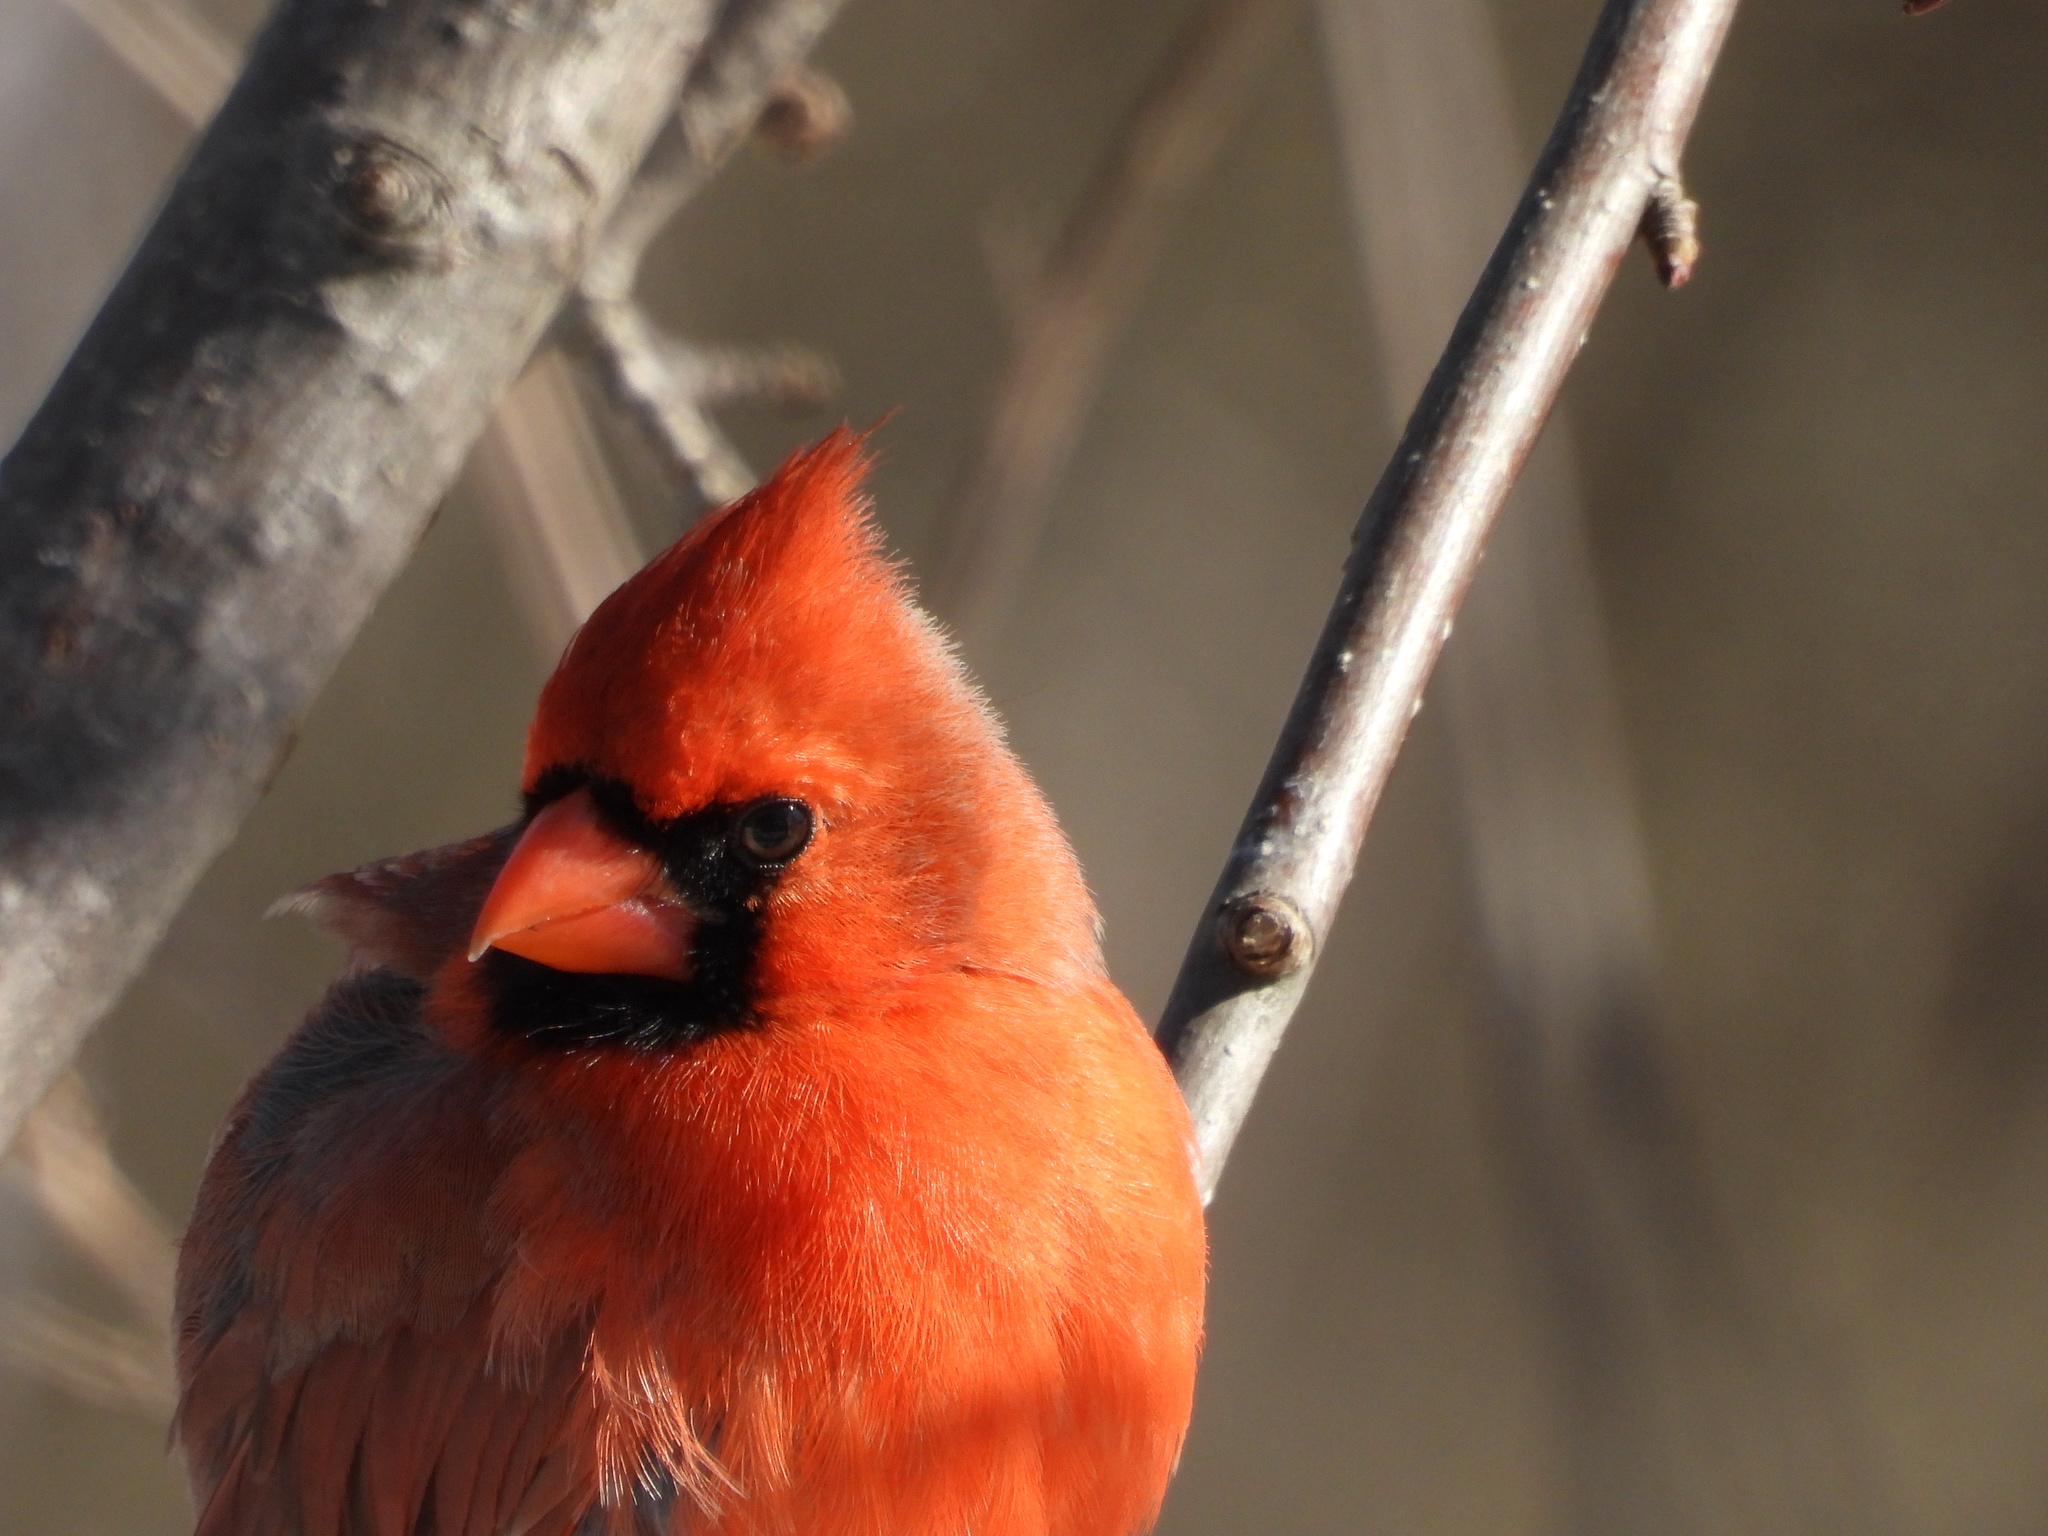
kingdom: Animalia
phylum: Chordata
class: Aves
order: Passeriformes
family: Cardinalidae
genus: Cardinalis
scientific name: Cardinalis cardinalis
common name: Northern cardinal
